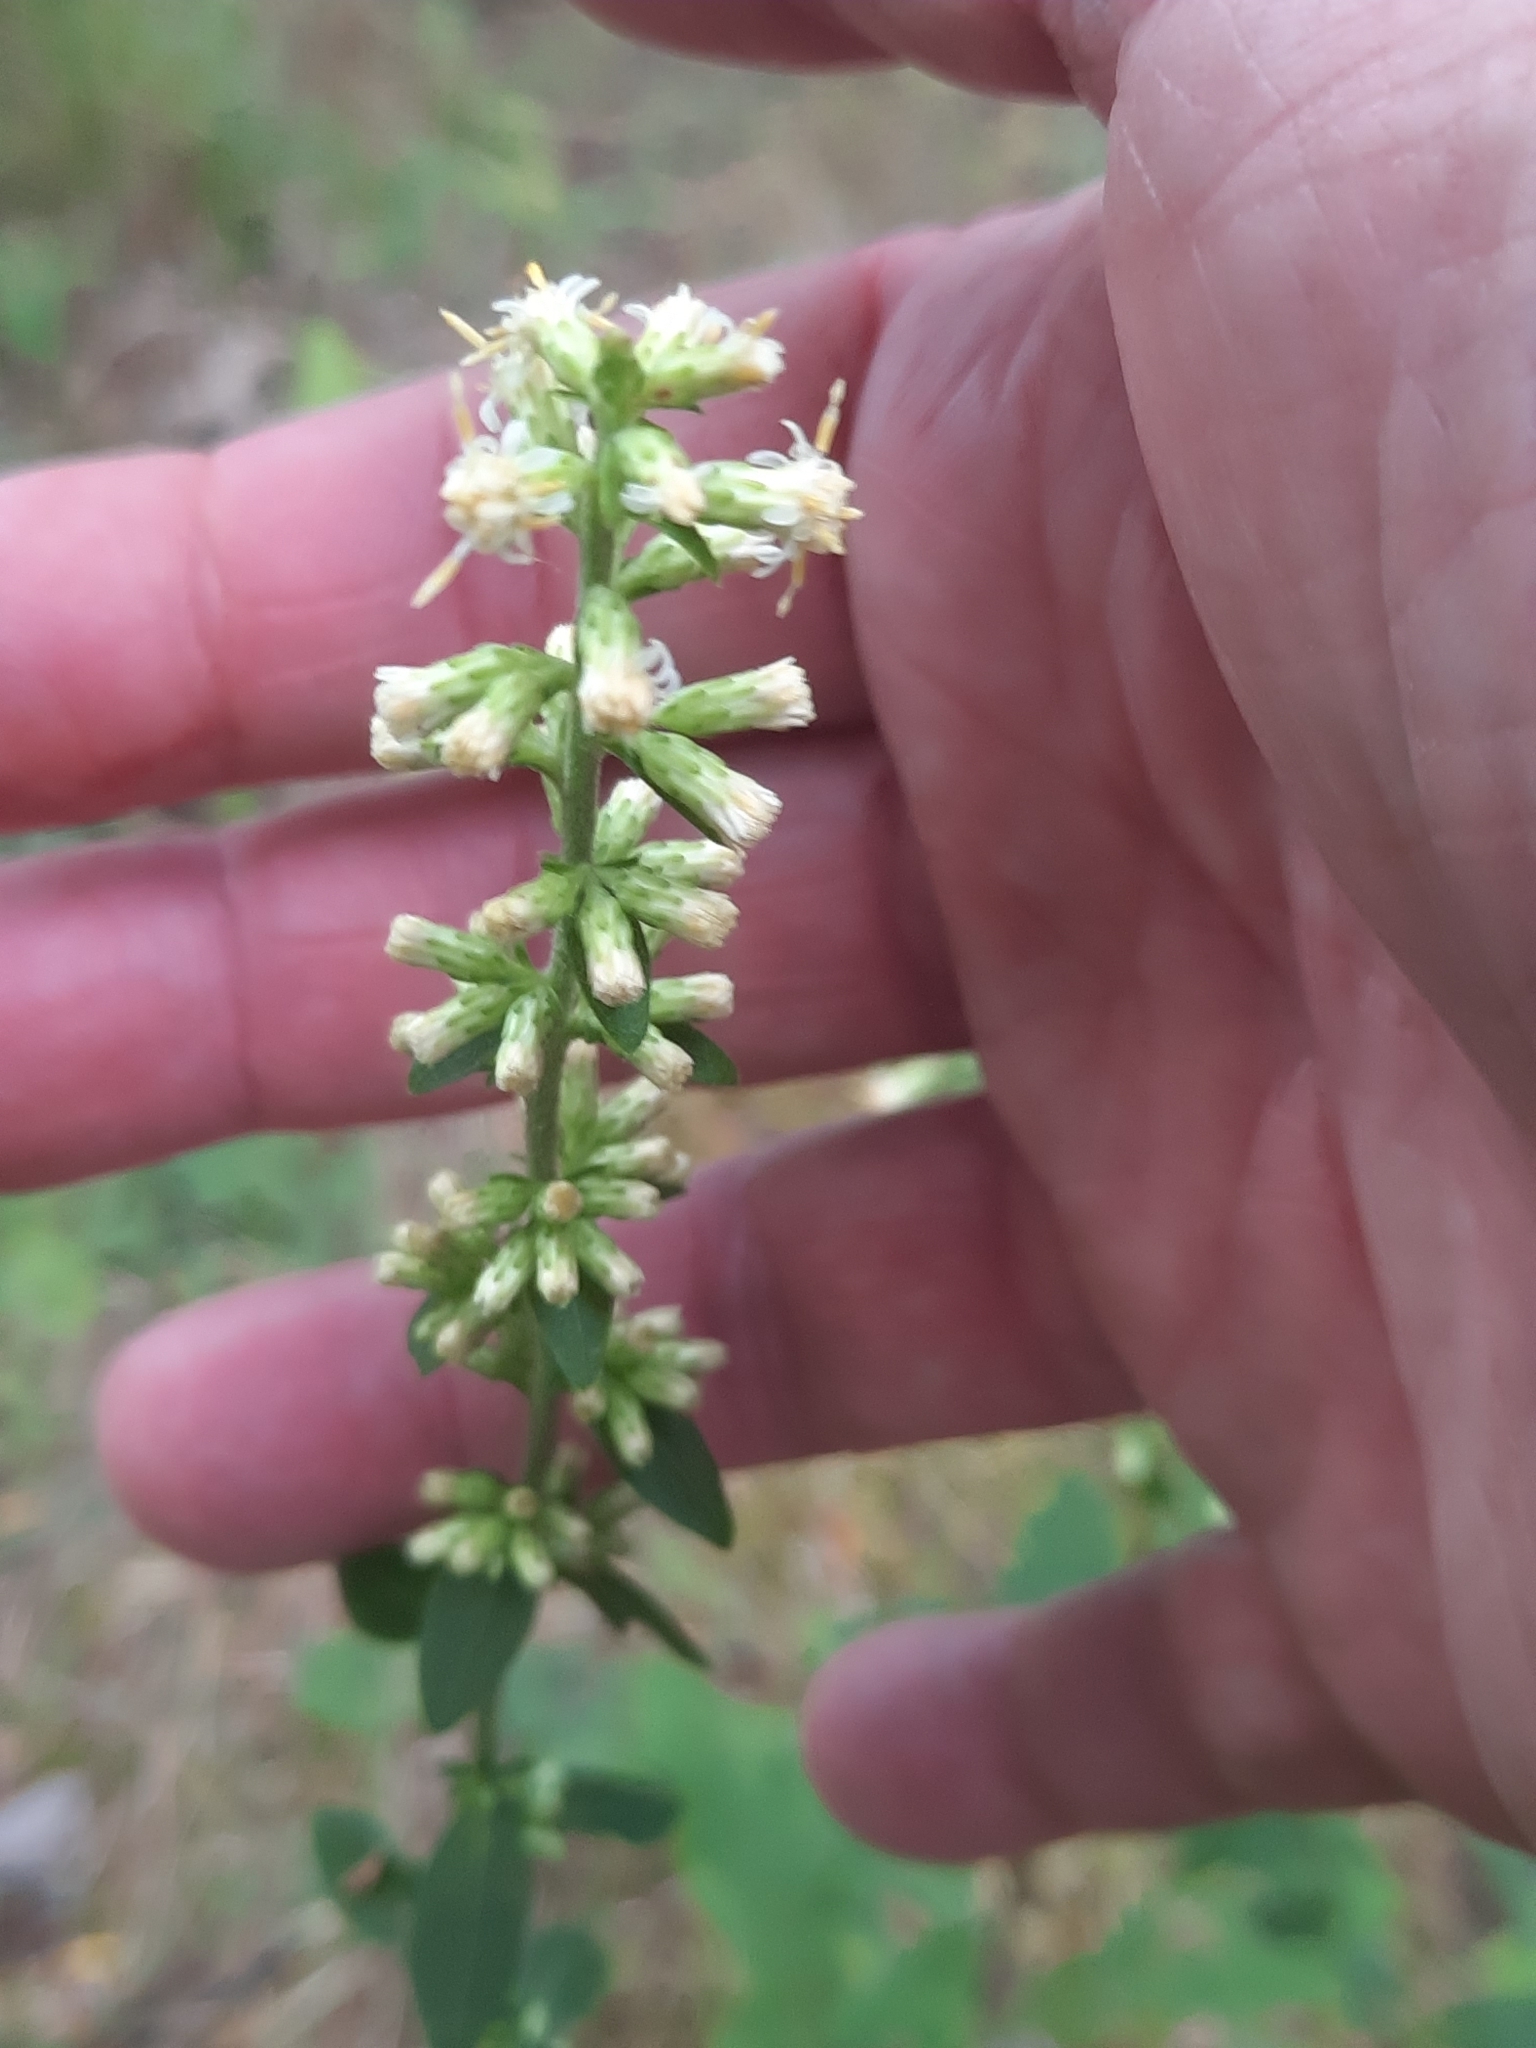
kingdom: Plantae
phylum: Tracheophyta
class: Magnoliopsida
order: Asterales
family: Asteraceae
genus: Solidago
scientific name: Solidago bicolor
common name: Silverrod
